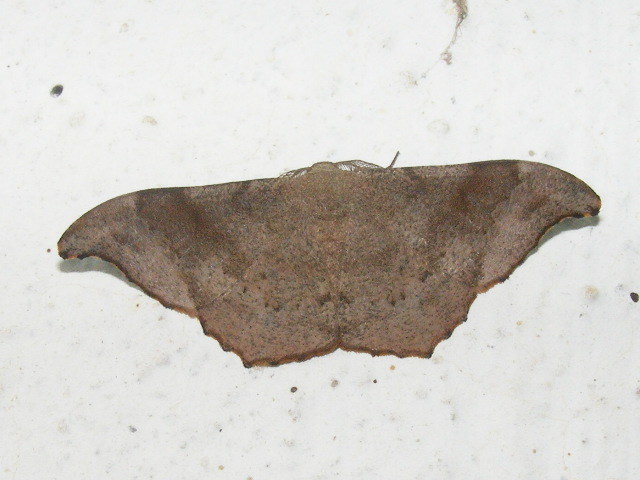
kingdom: Animalia
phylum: Arthropoda
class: Insecta
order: Lepidoptera
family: Geometridae
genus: Hyposidra
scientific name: Hyposidra talaca
